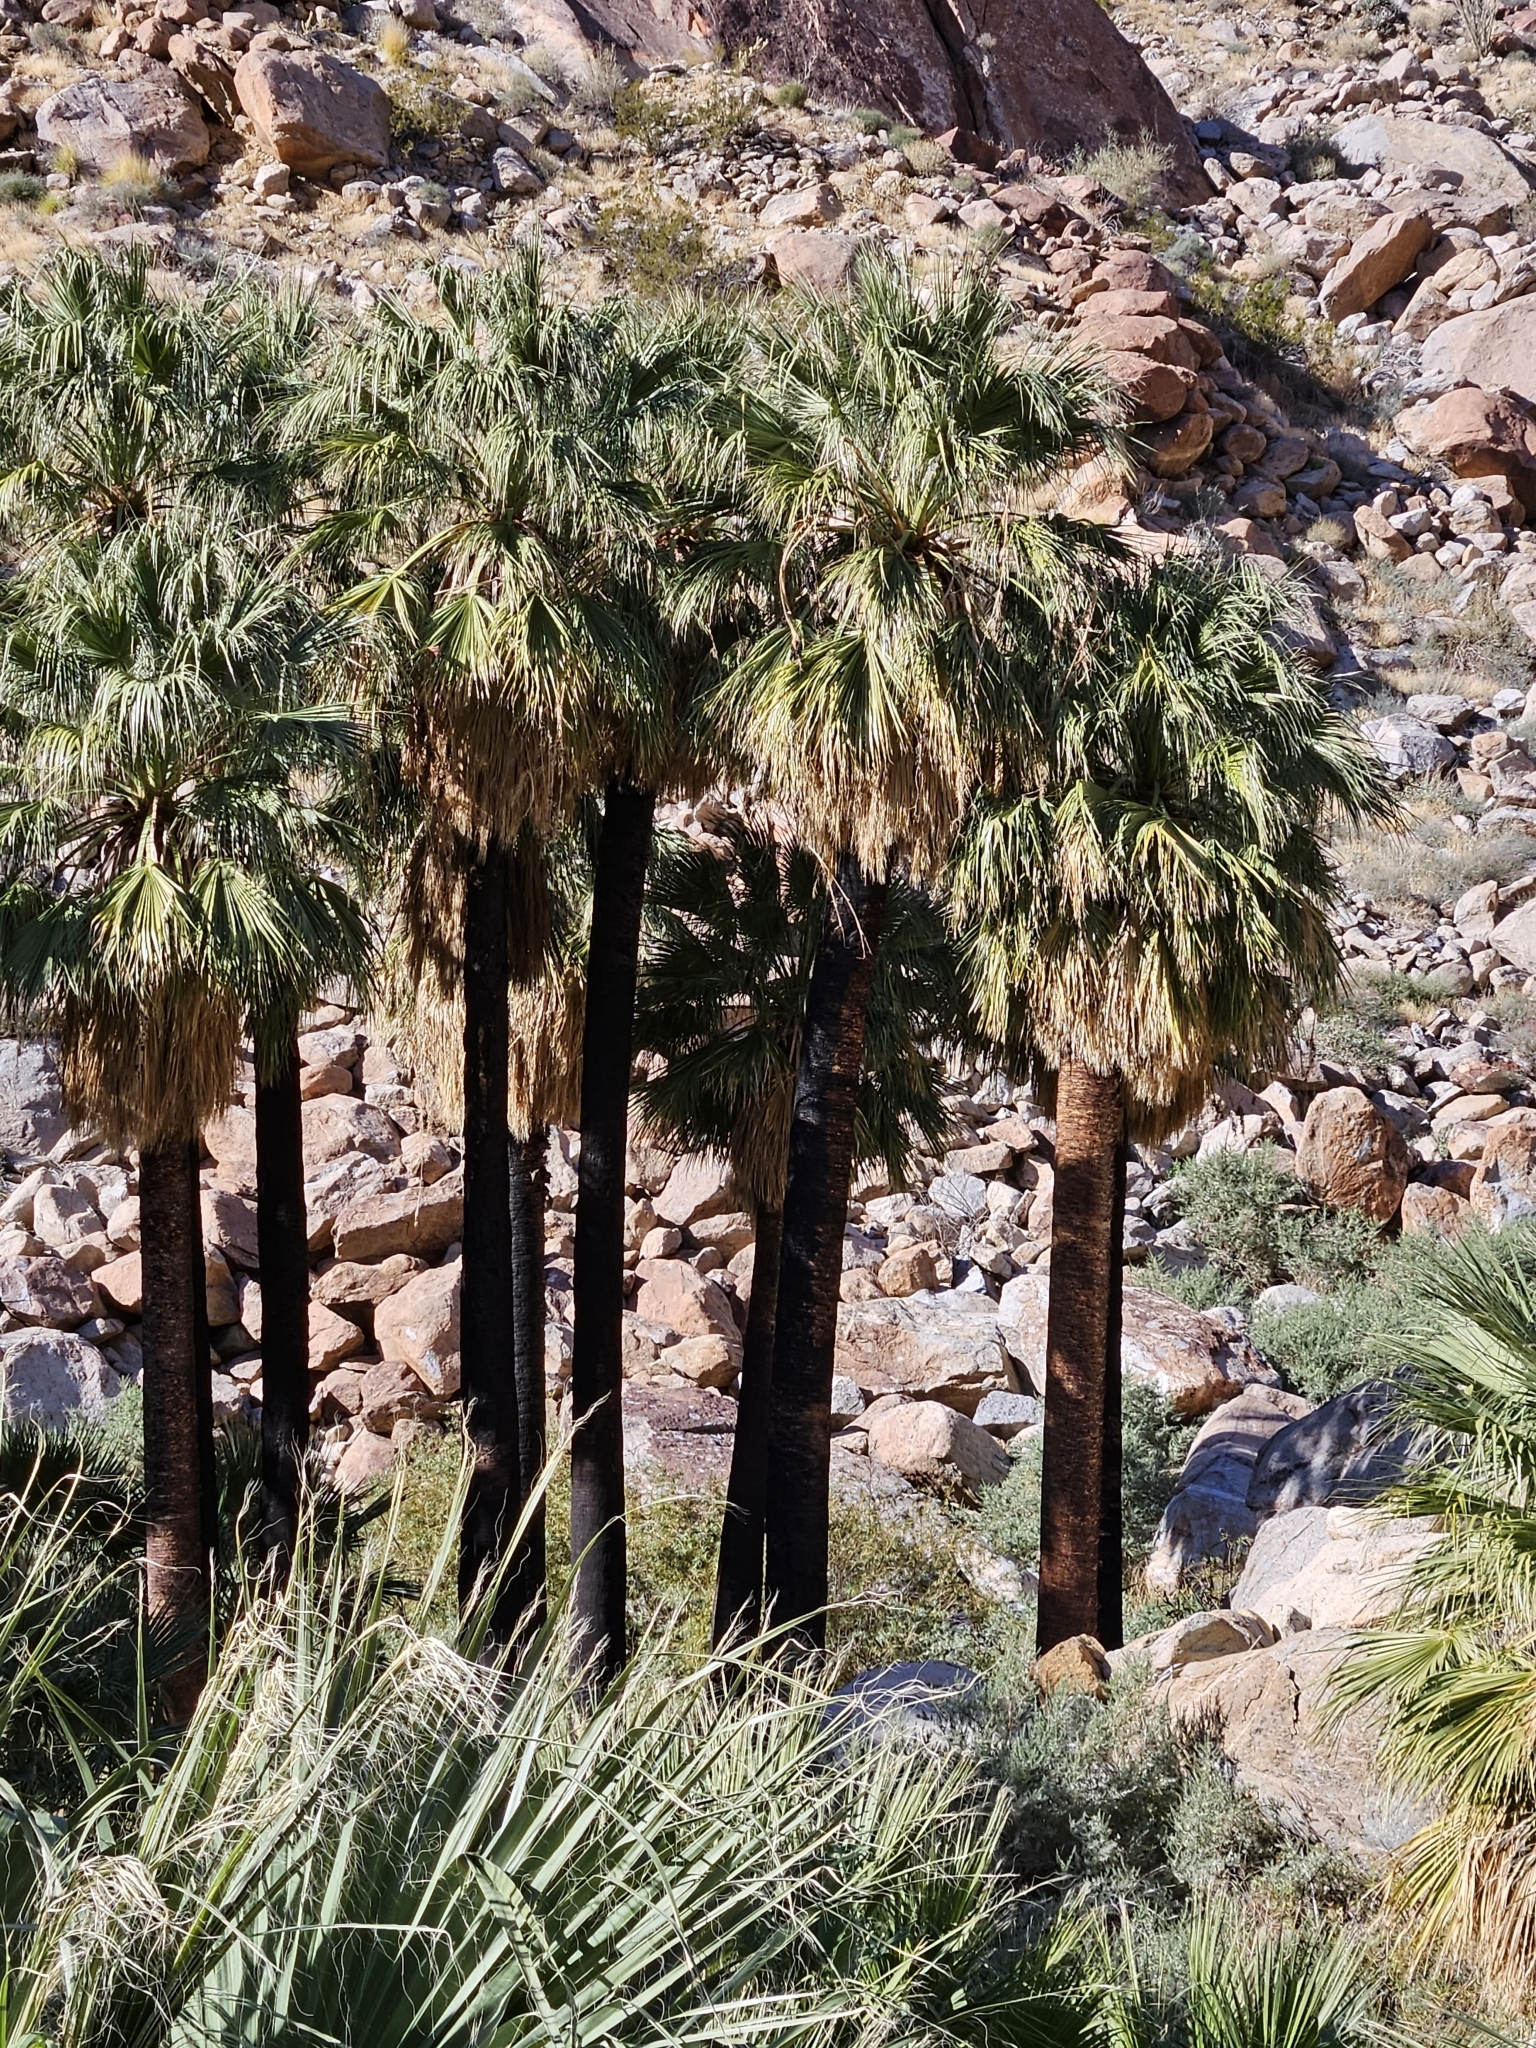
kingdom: Plantae
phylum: Tracheophyta
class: Liliopsida
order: Arecales
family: Arecaceae
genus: Washingtonia
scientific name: Washingtonia filifera
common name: California fan palm
